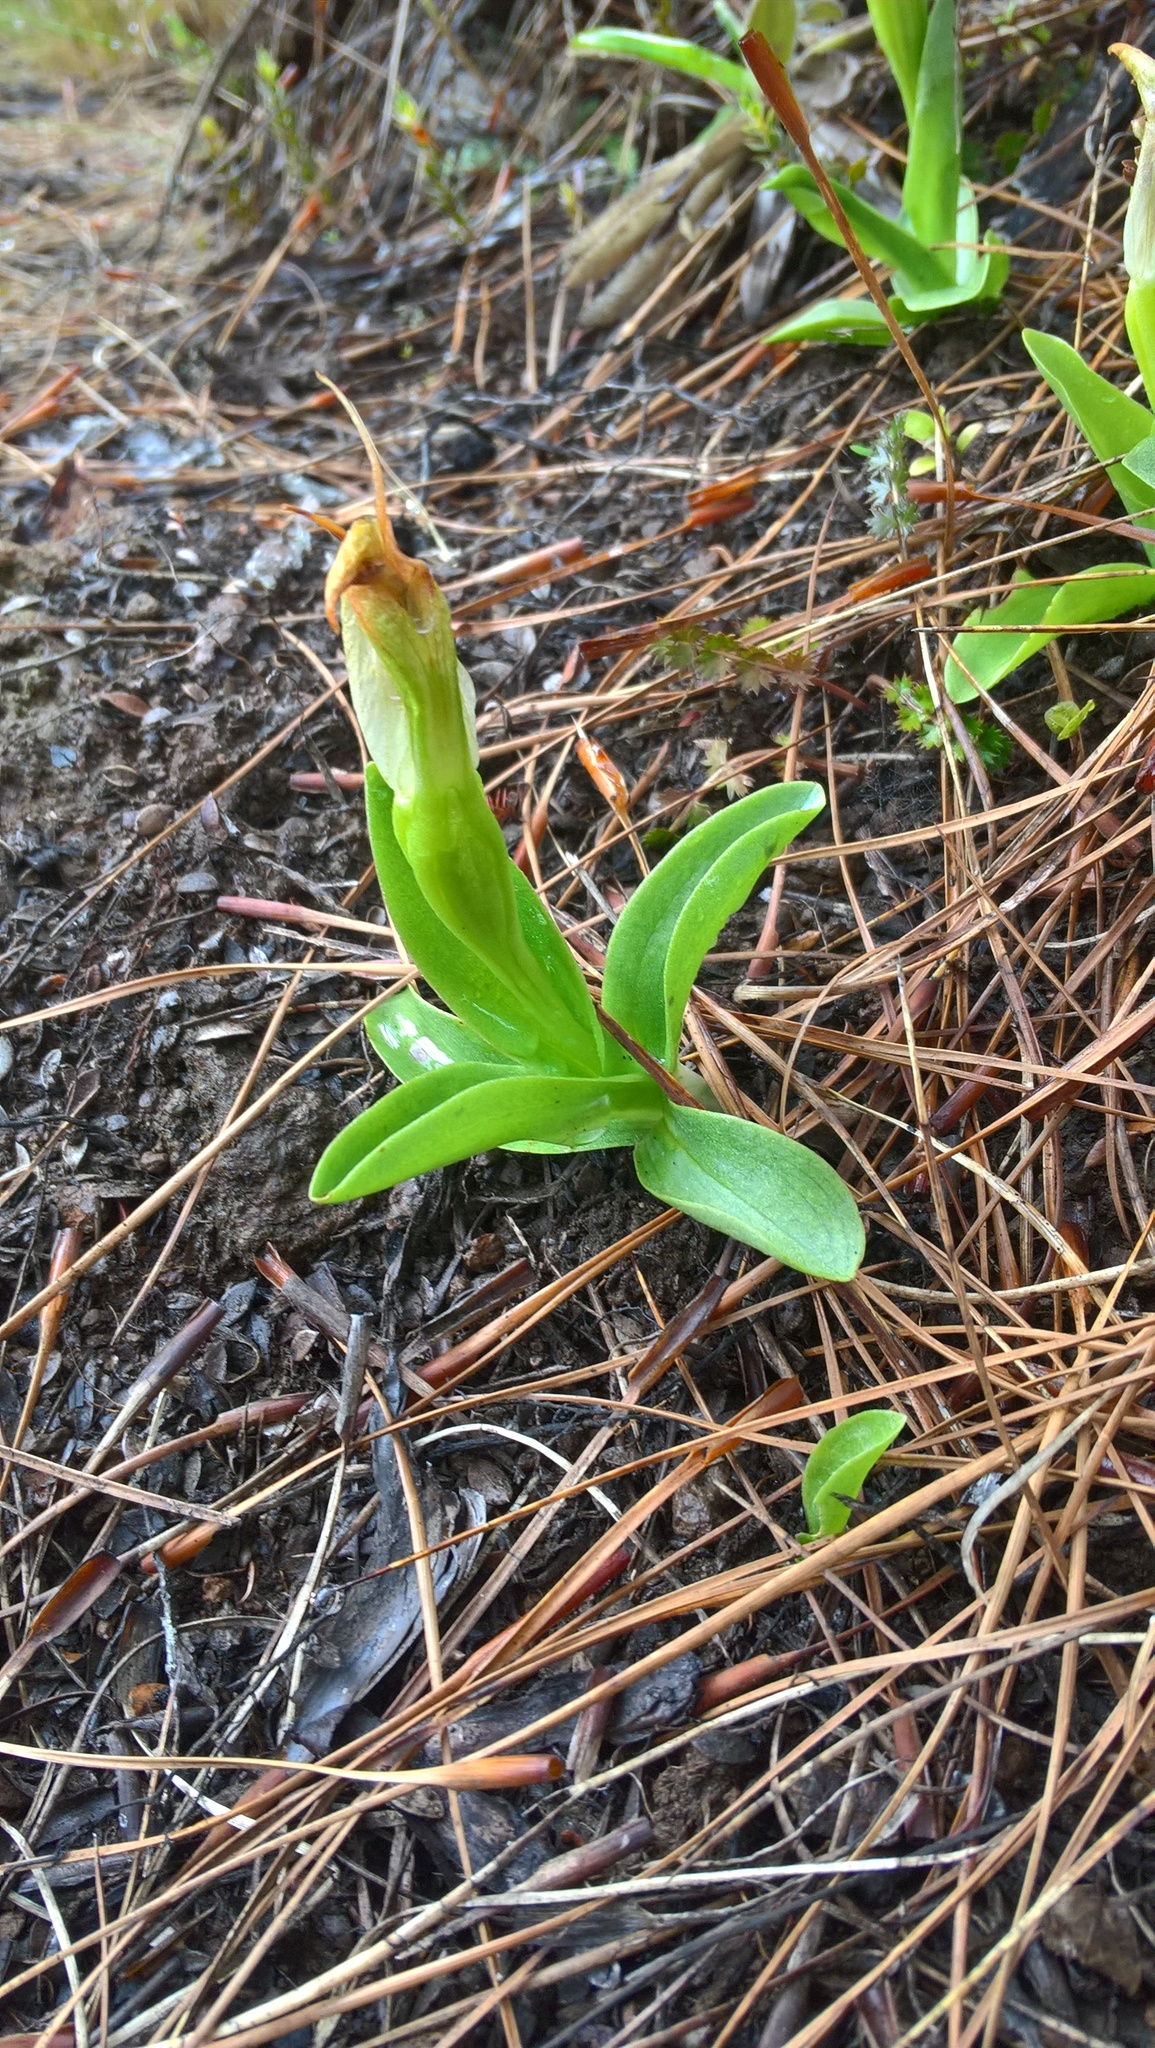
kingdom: Plantae
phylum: Tracheophyta
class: Liliopsida
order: Asparagales
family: Orchidaceae
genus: Pterostylis
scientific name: Pterostylis venosa
